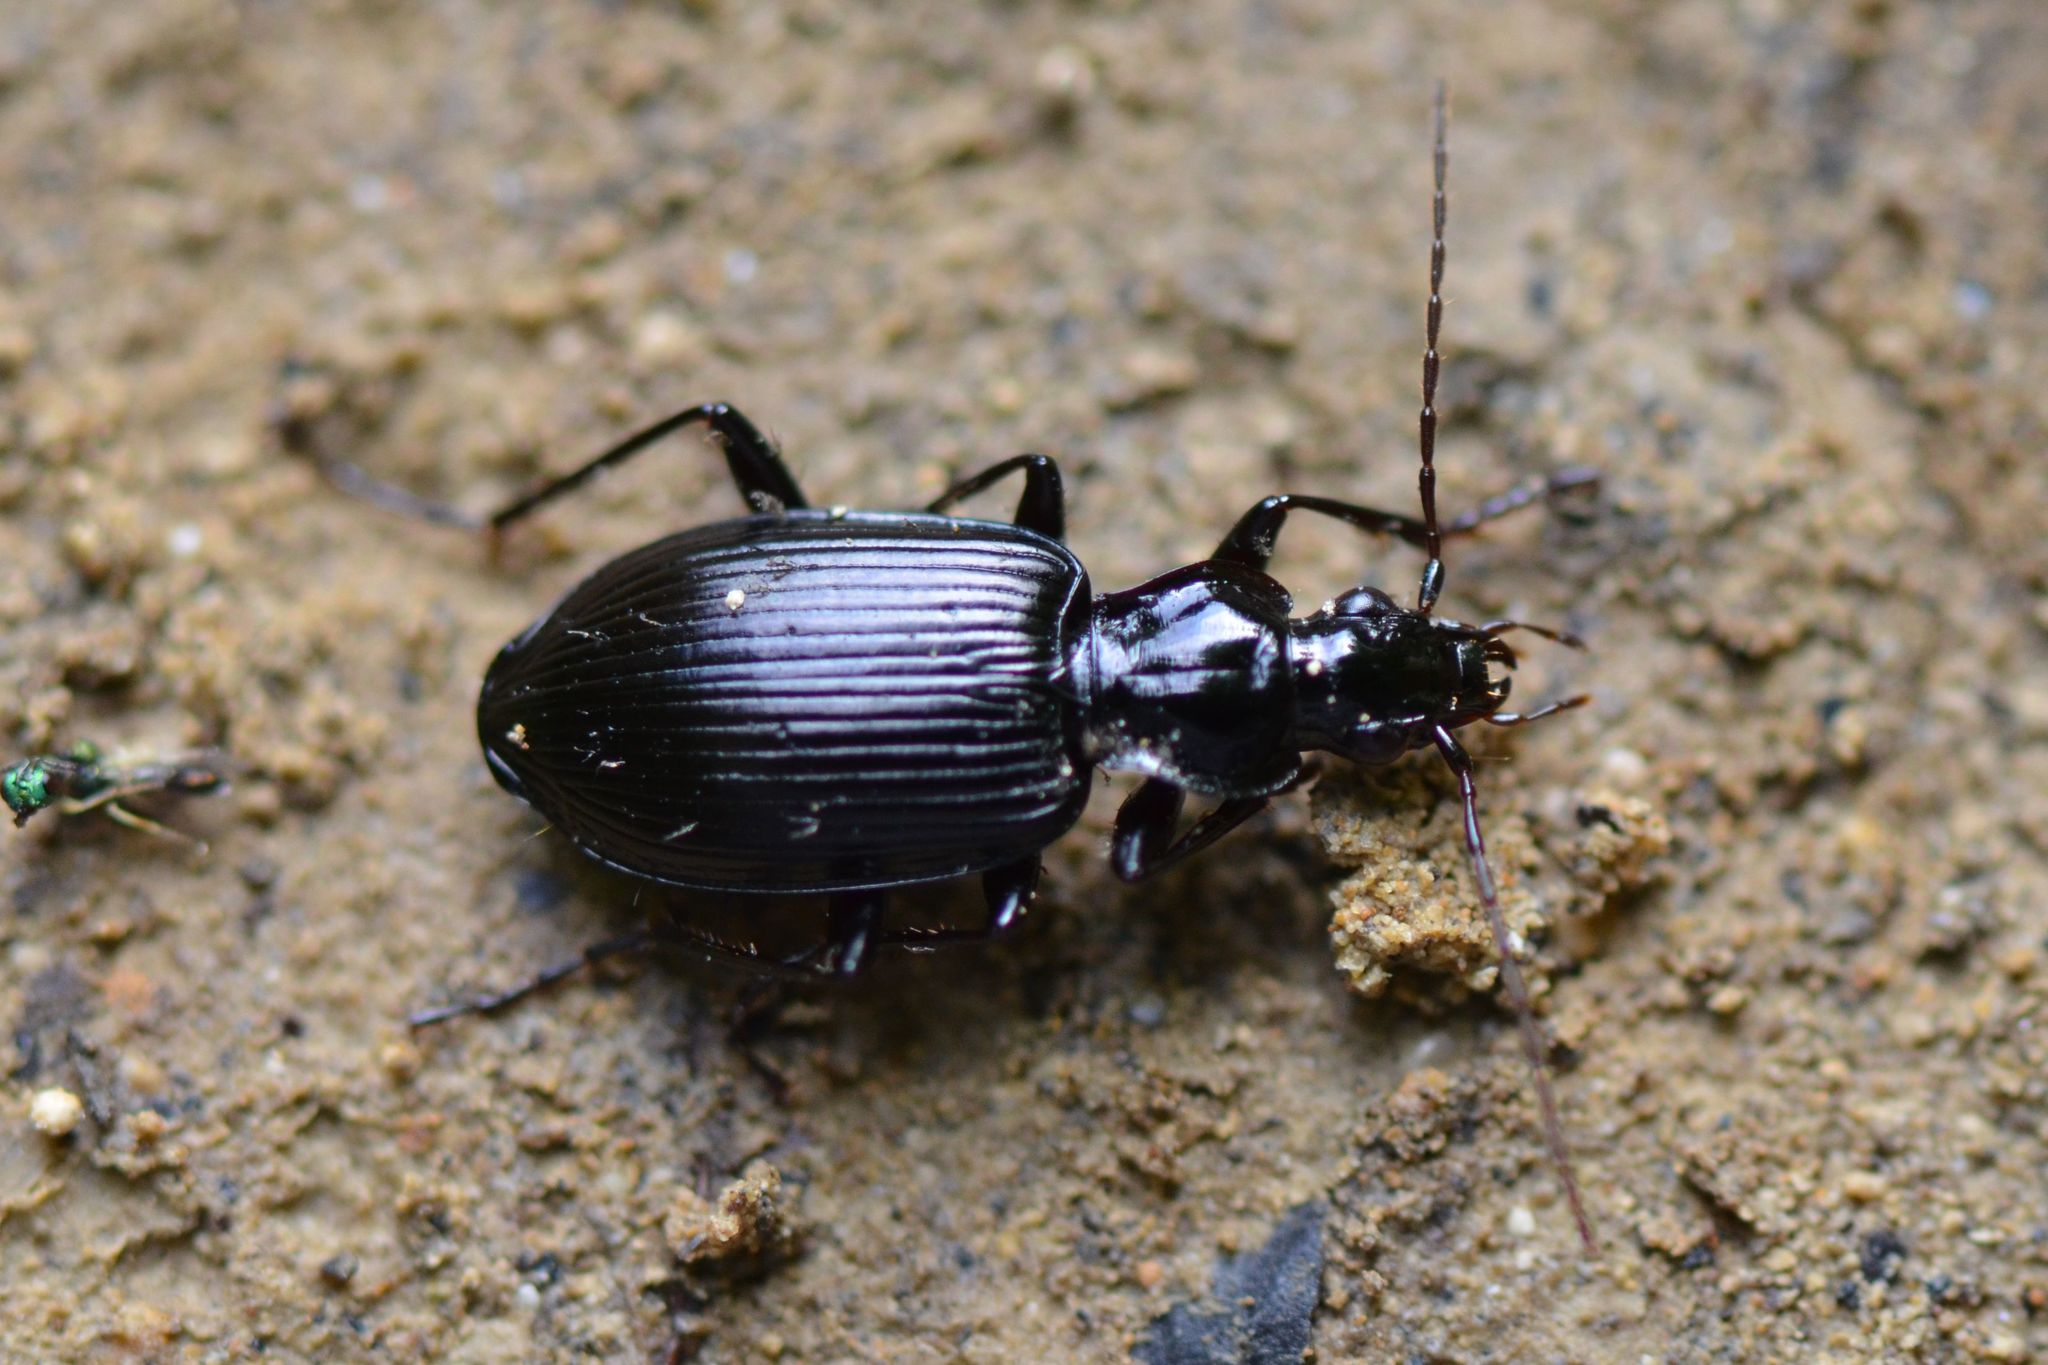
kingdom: Animalia
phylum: Arthropoda
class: Insecta
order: Coleoptera
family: Carabidae
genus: Platynus
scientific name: Platynus assimilis
